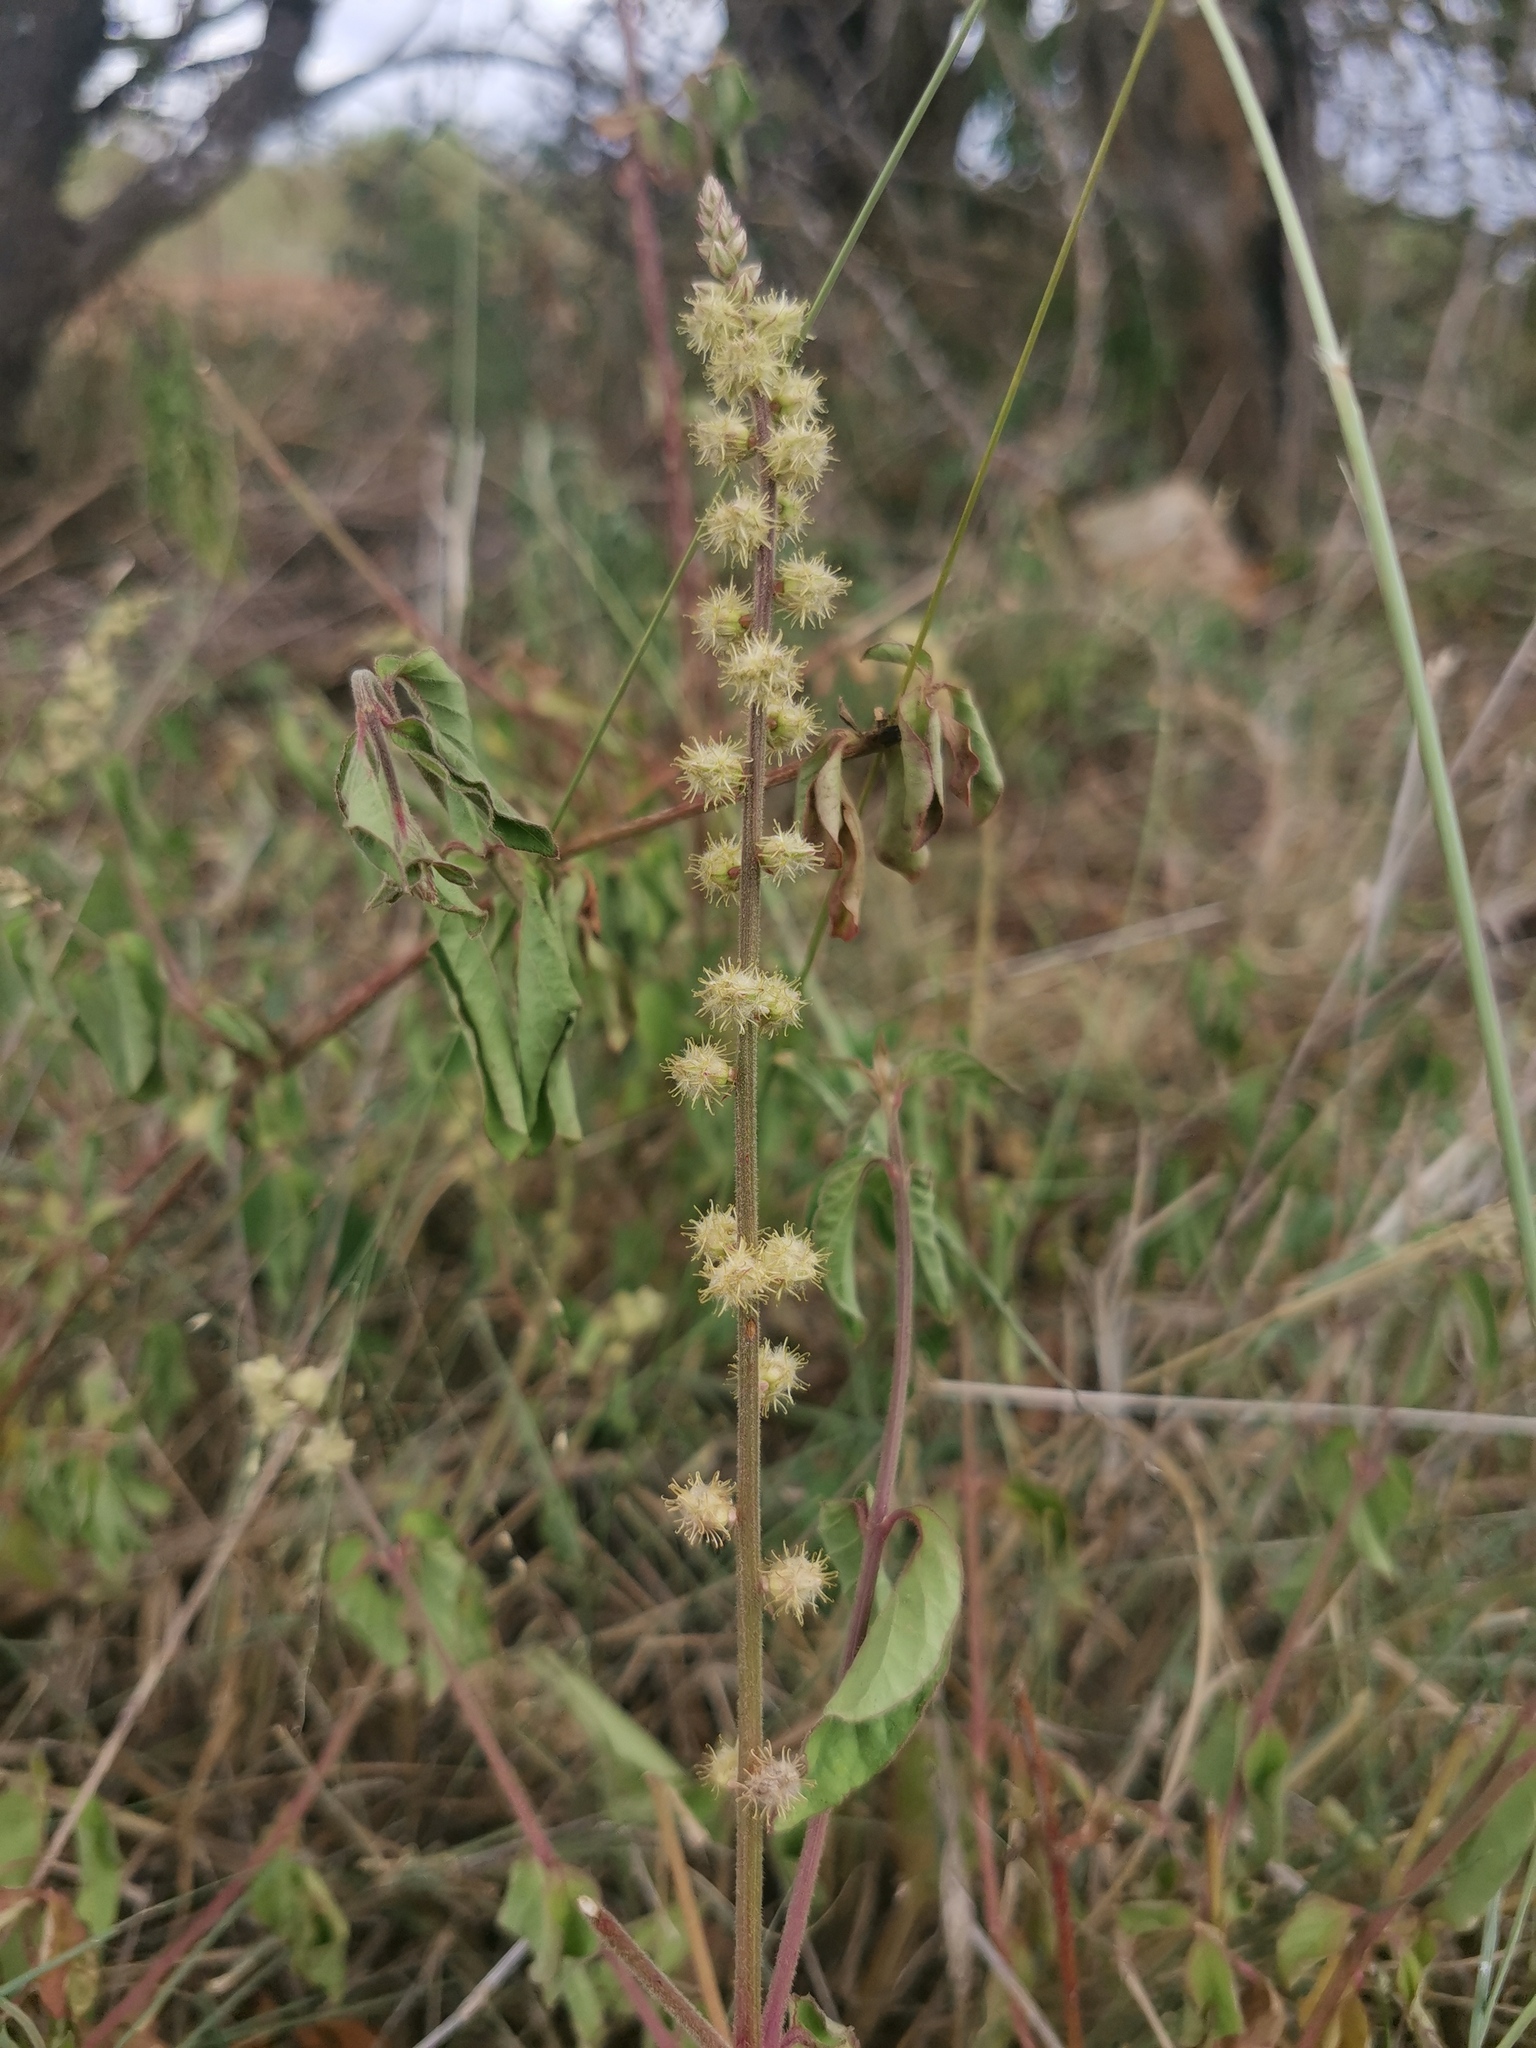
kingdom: Plantae
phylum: Tracheophyta
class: Magnoliopsida
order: Caryophyllales
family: Amaranthaceae
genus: Pupalia
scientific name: Pupalia lappacea
